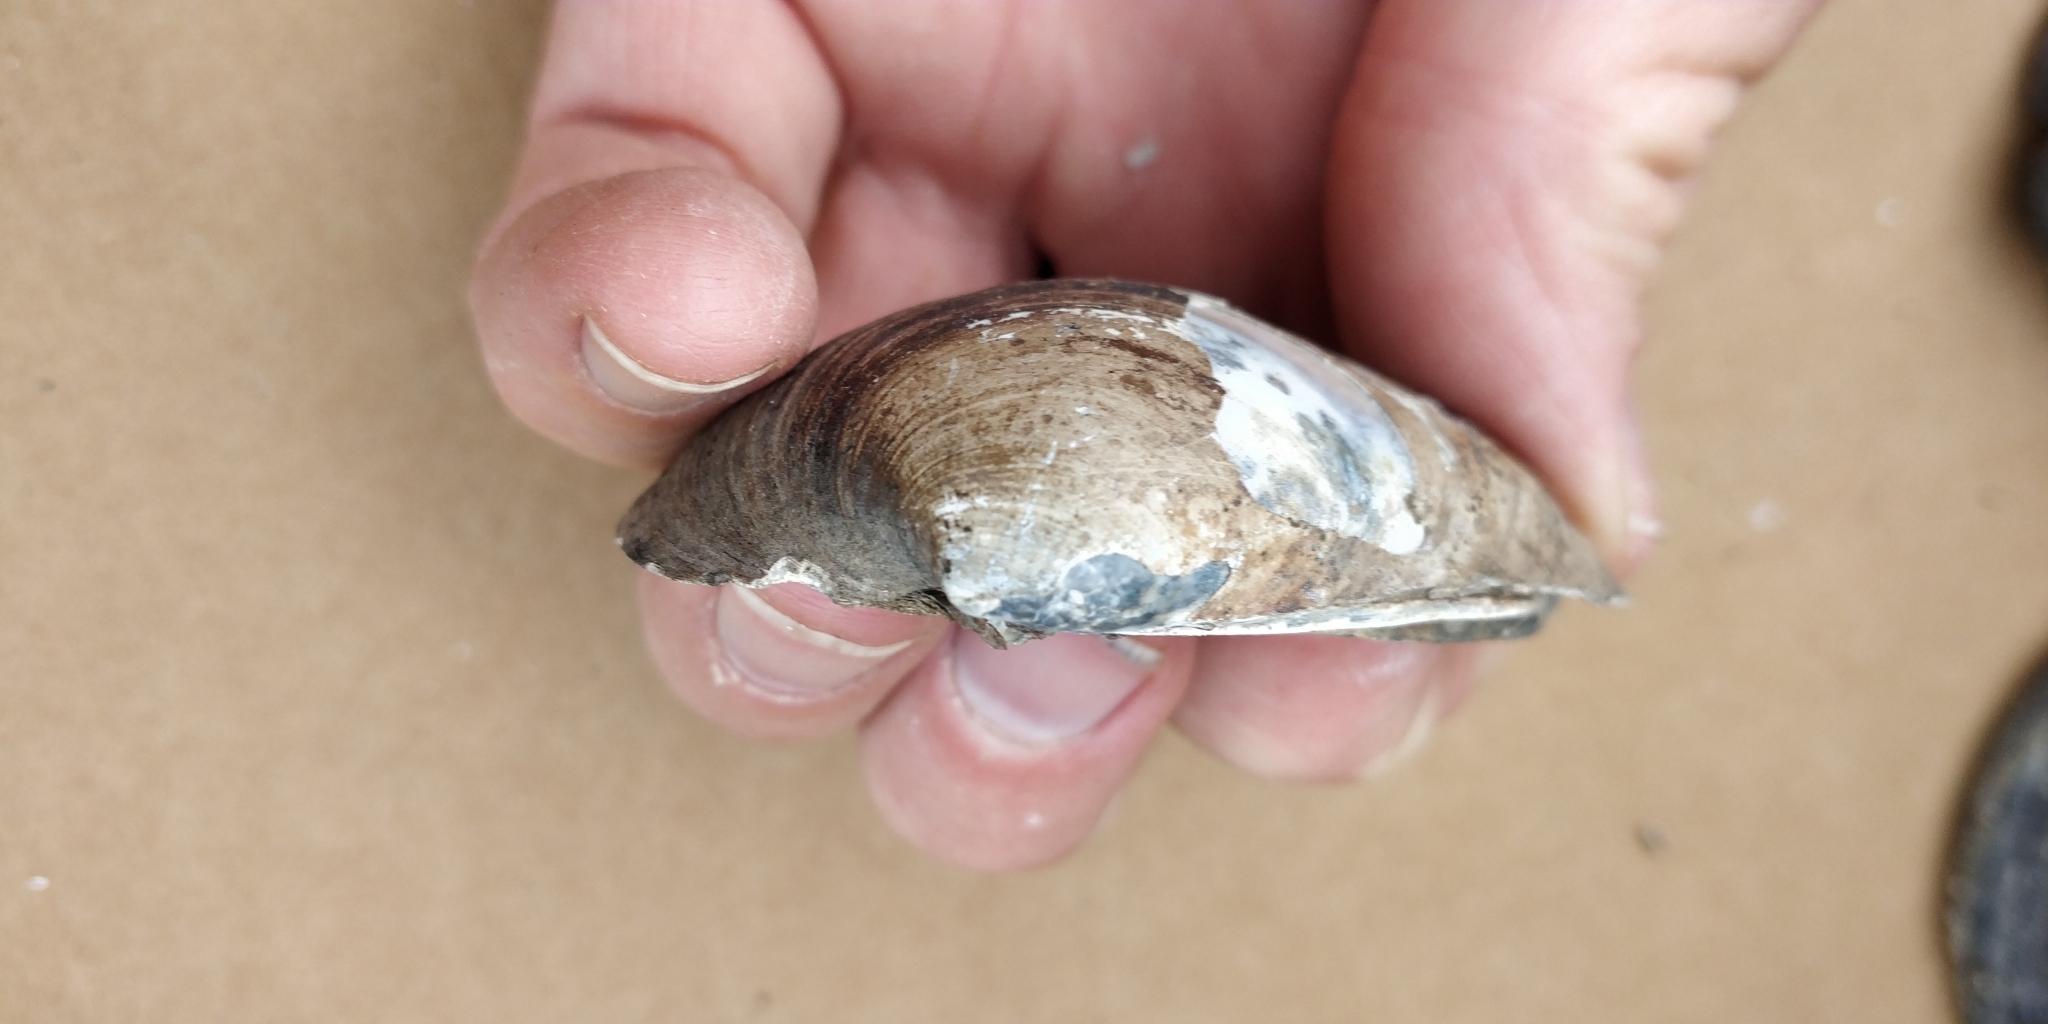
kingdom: Animalia
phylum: Mollusca
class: Bivalvia
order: Unionida
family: Unionidae
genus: Obovaria
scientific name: Obovaria olivaria
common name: Hickorynut
